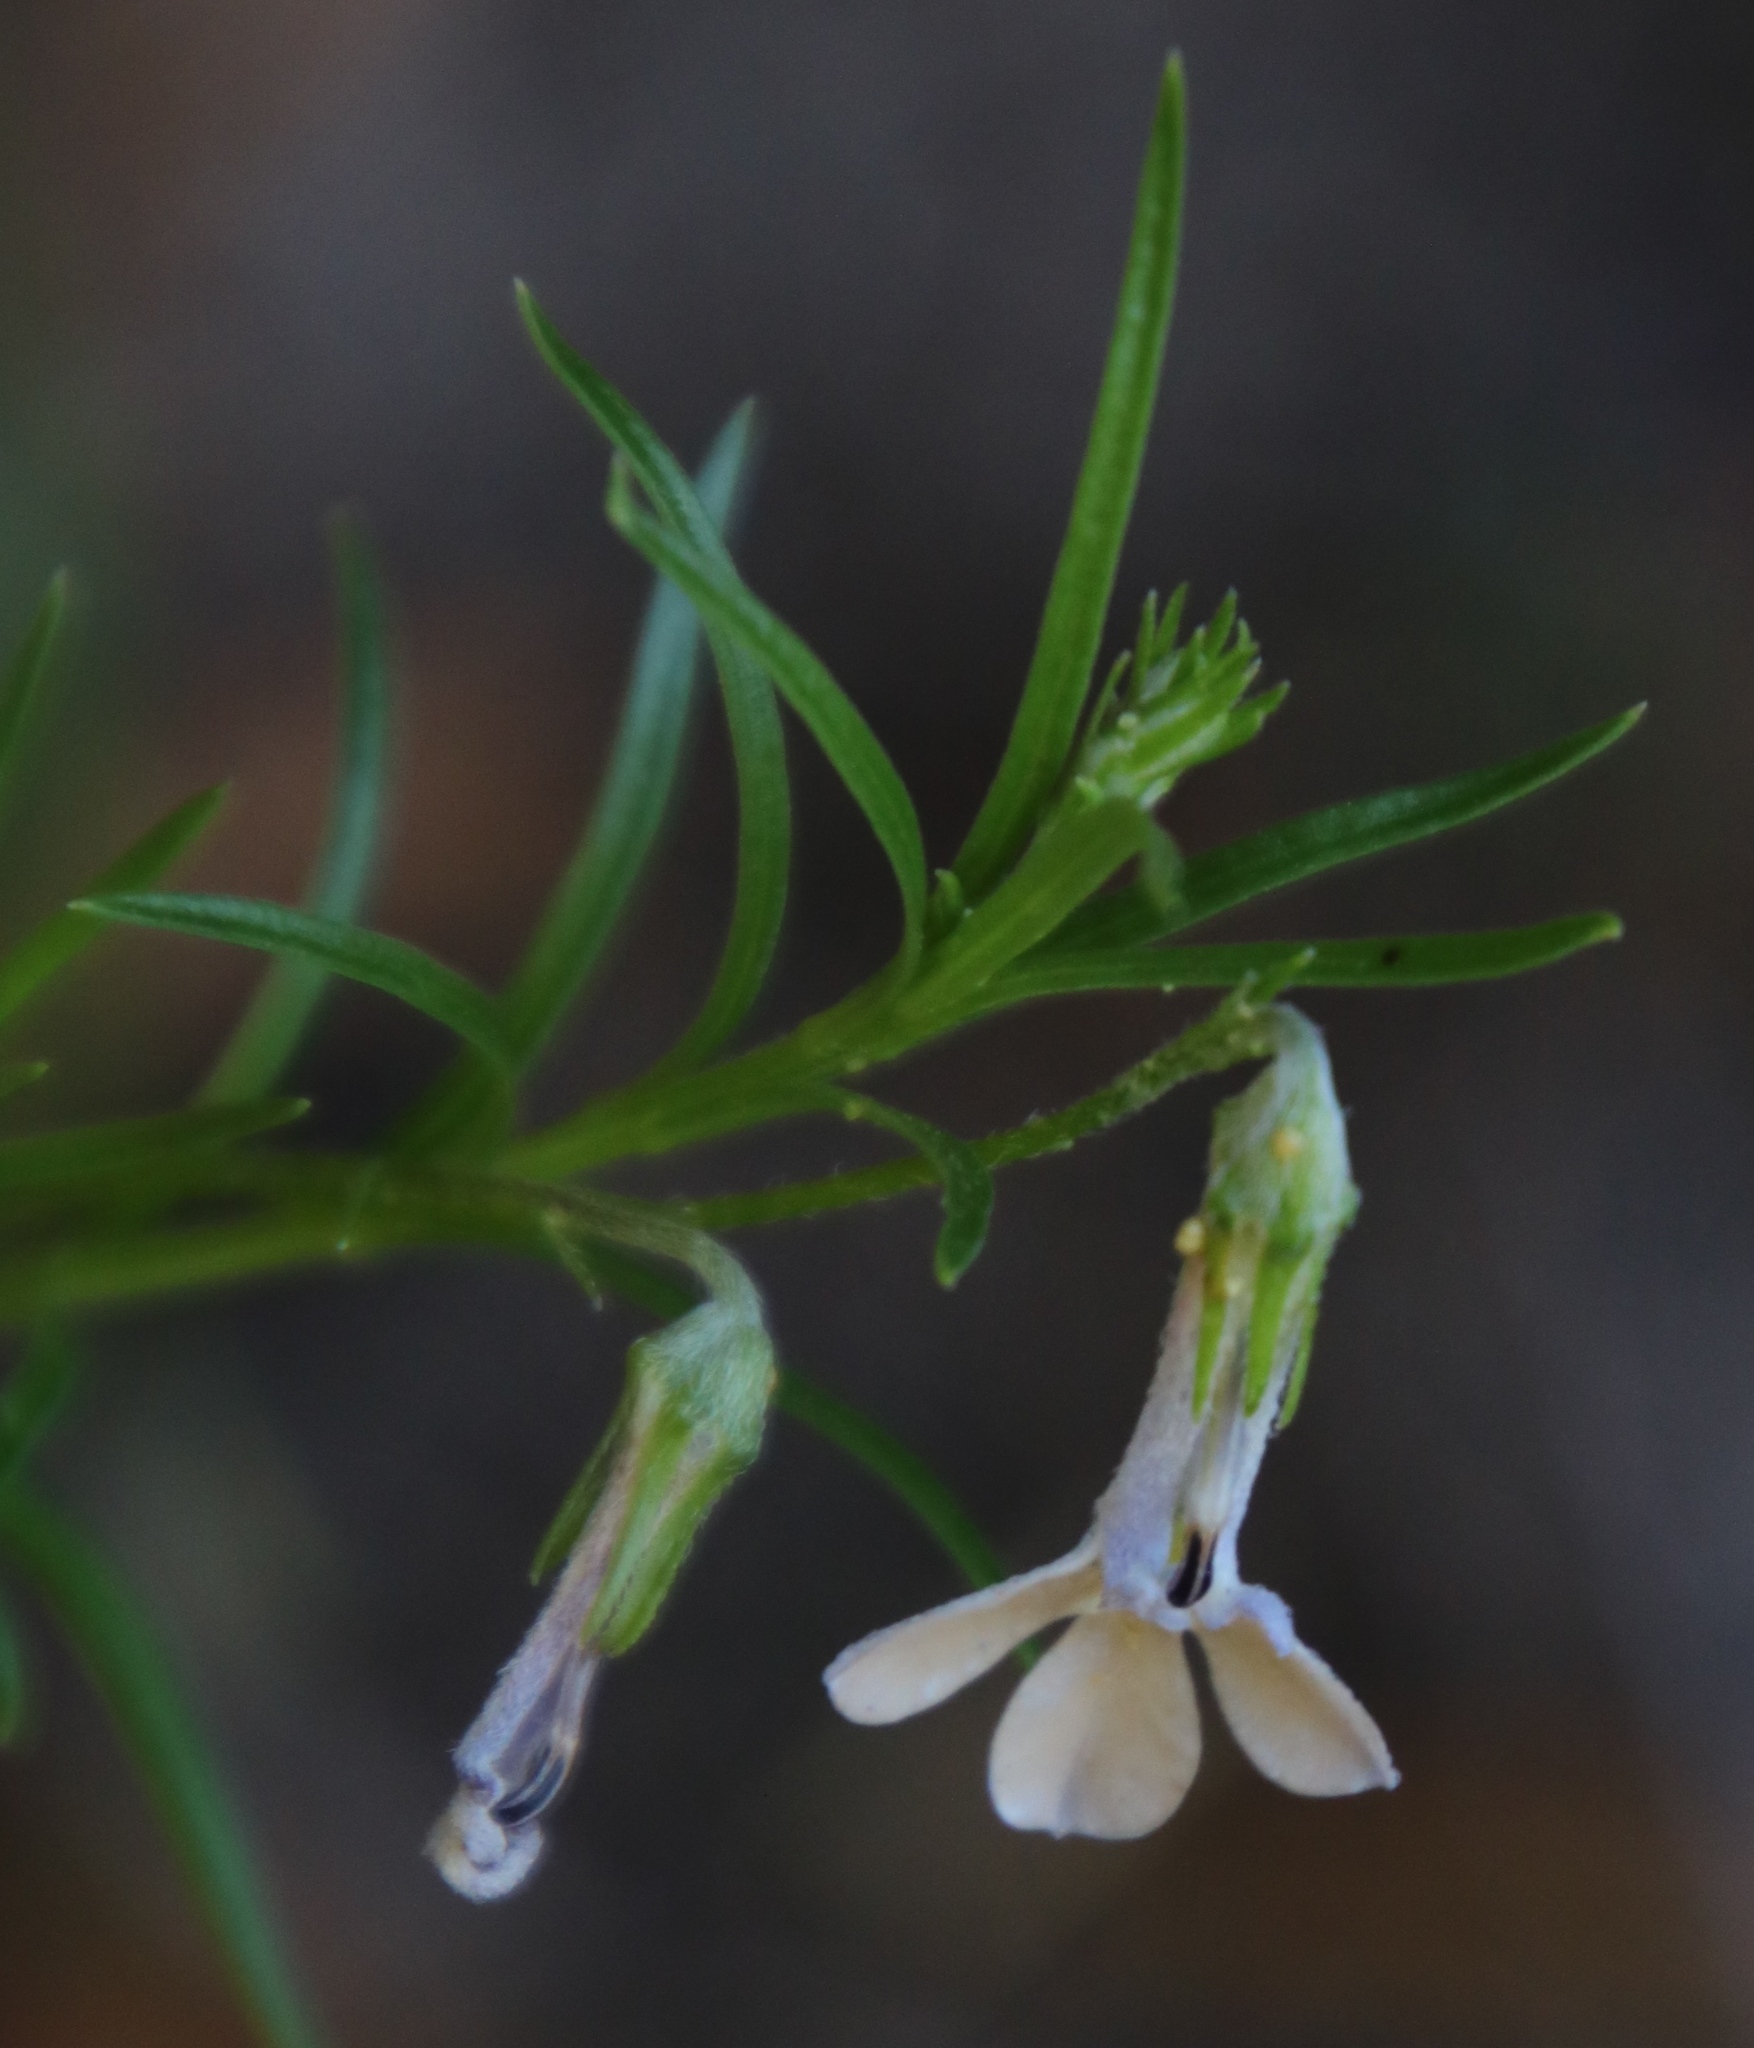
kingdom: Plantae
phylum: Tracheophyta
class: Magnoliopsida
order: Asterales
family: Campanulaceae
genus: Lobelia
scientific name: Lobelia pinifolia
